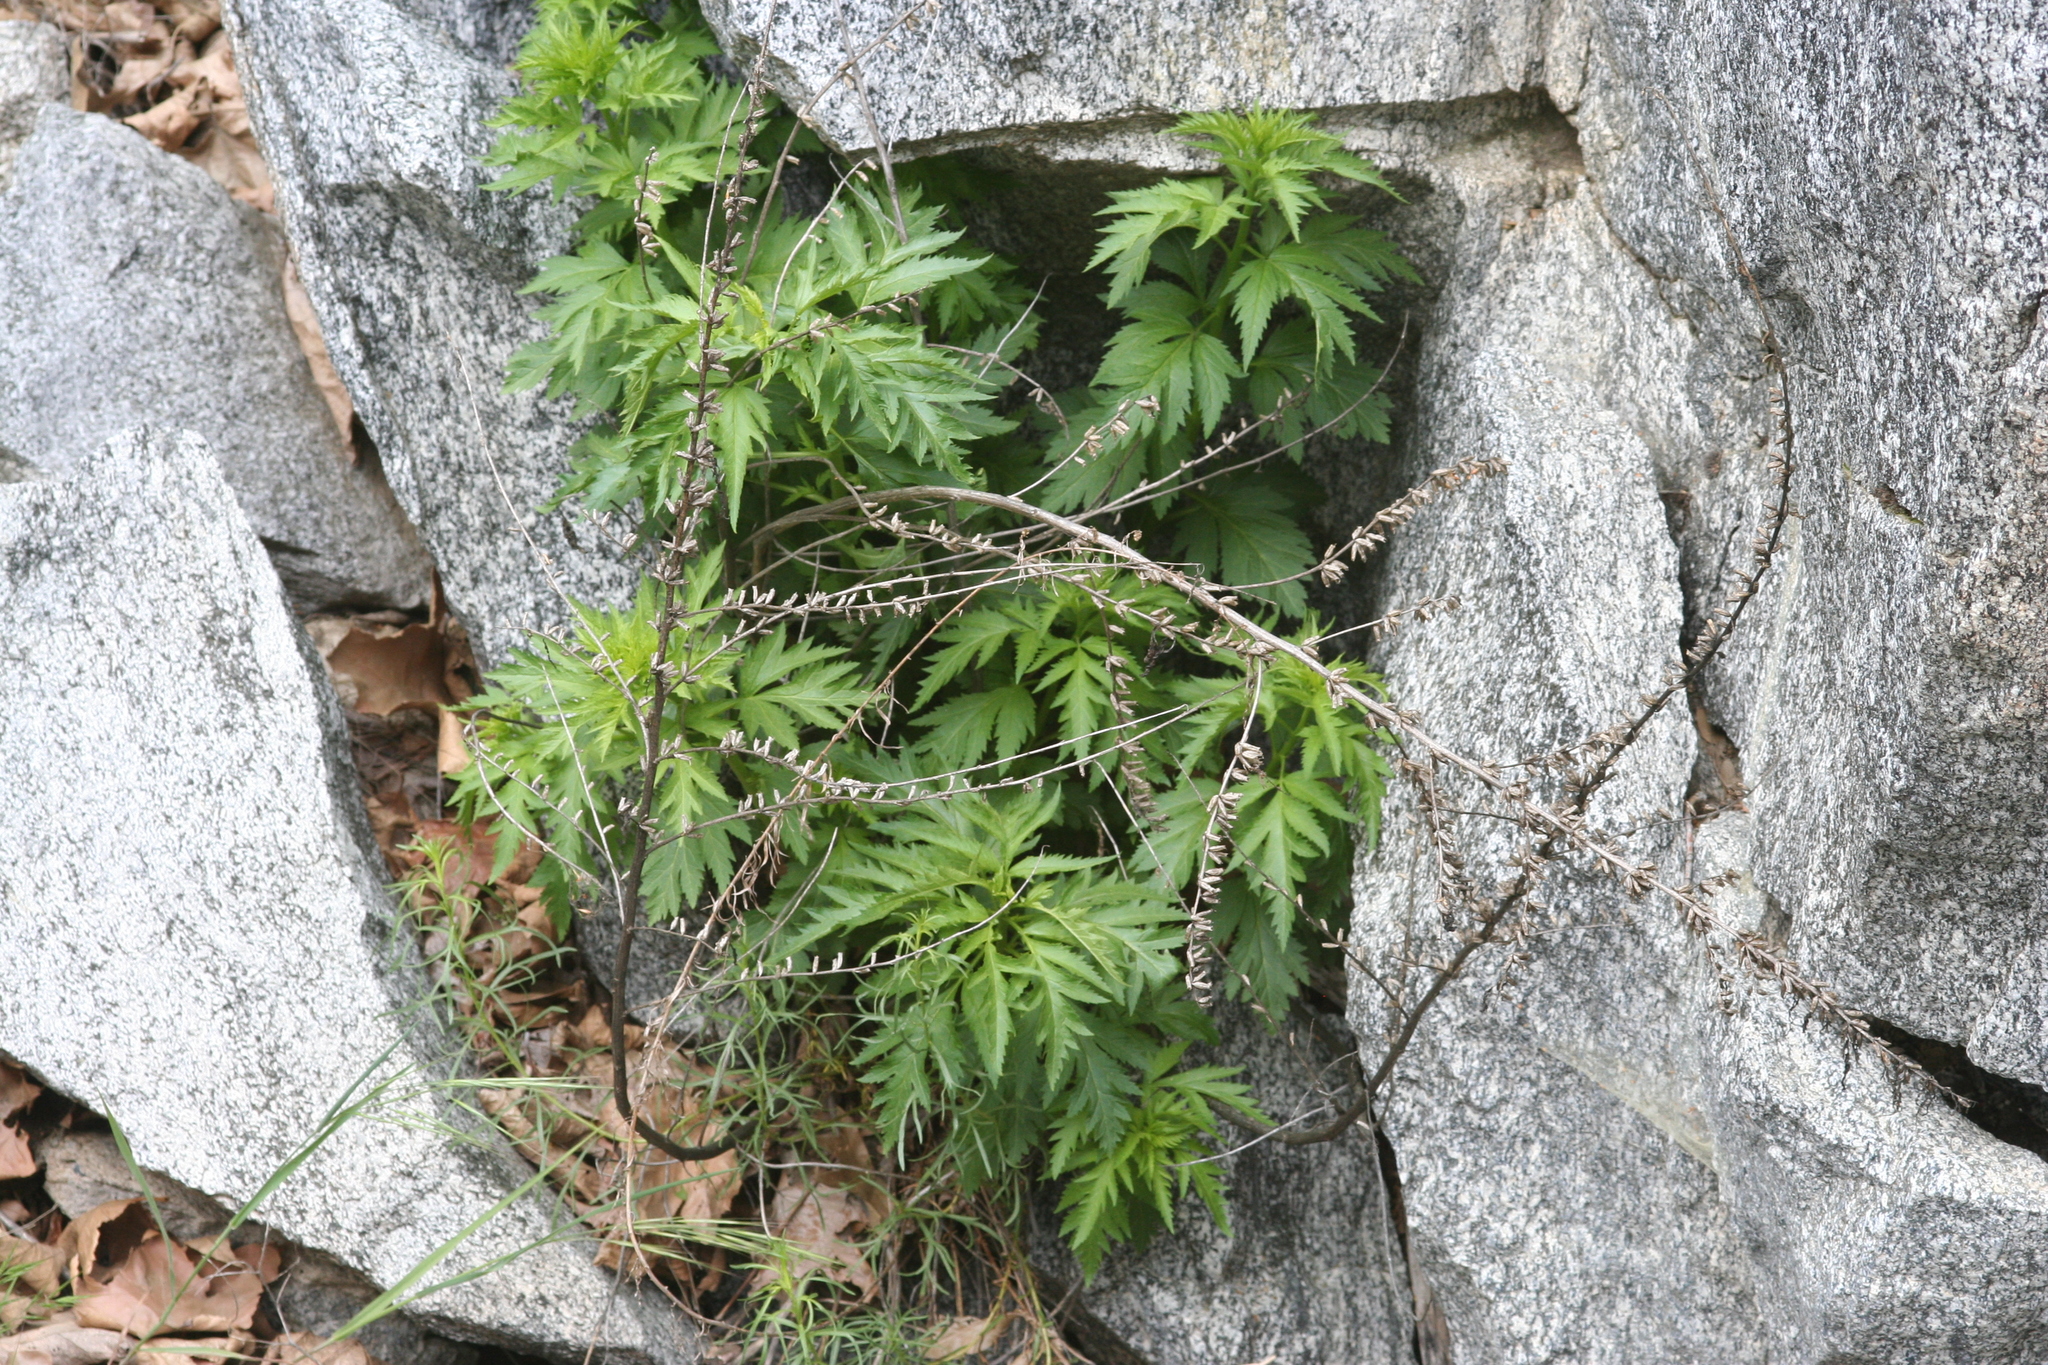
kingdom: Plantae
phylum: Tracheophyta
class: Magnoliopsida
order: Cucurbitales
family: Datiscaceae
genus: Datisca
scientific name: Datisca glomerata
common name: Durango-root
